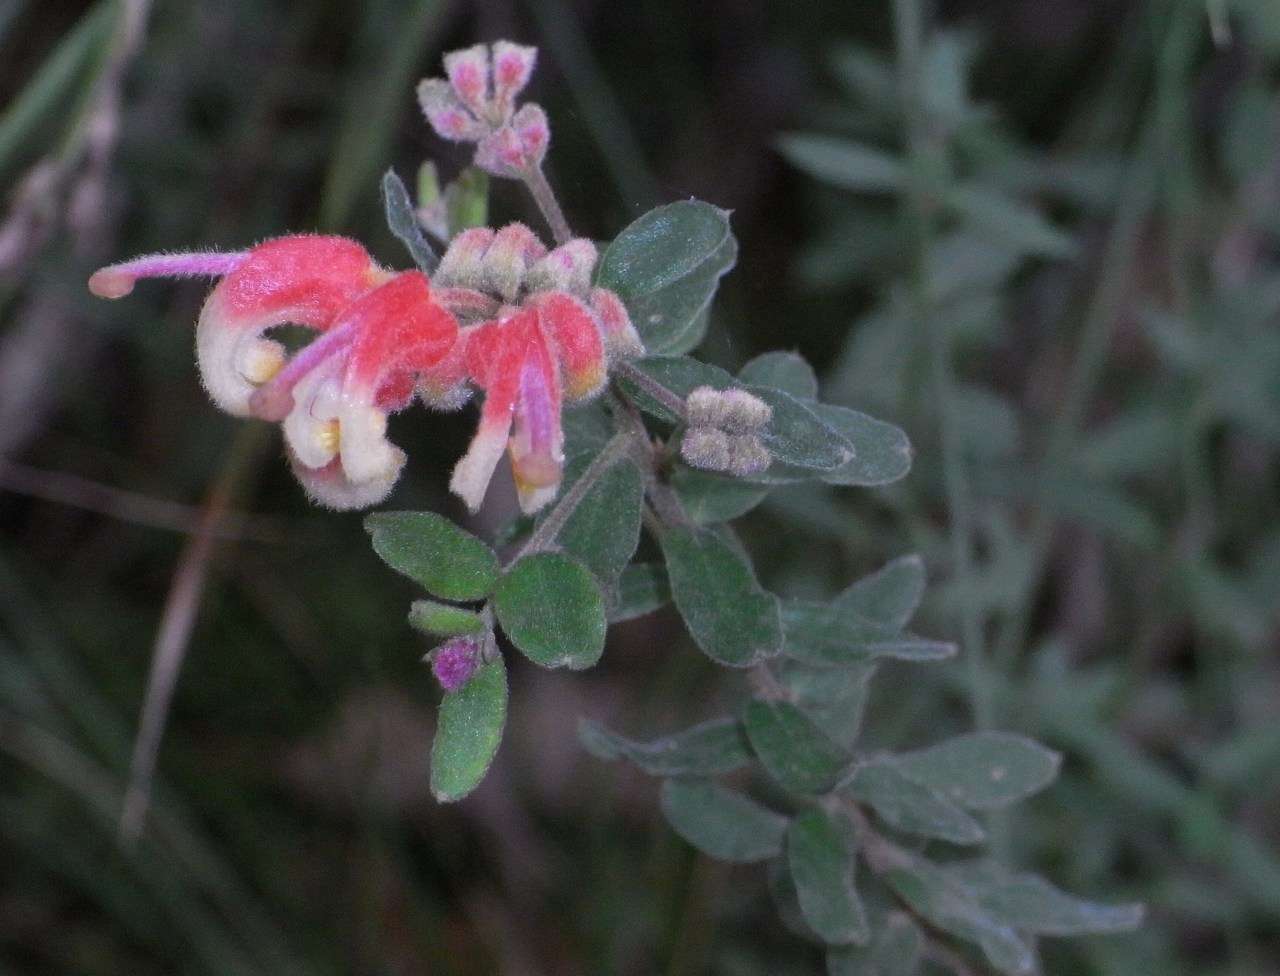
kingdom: Plantae
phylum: Tracheophyta
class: Magnoliopsida
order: Proteales
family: Proteaceae
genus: Grevillea
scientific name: Grevillea alpina
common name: Catclaws grevillea
